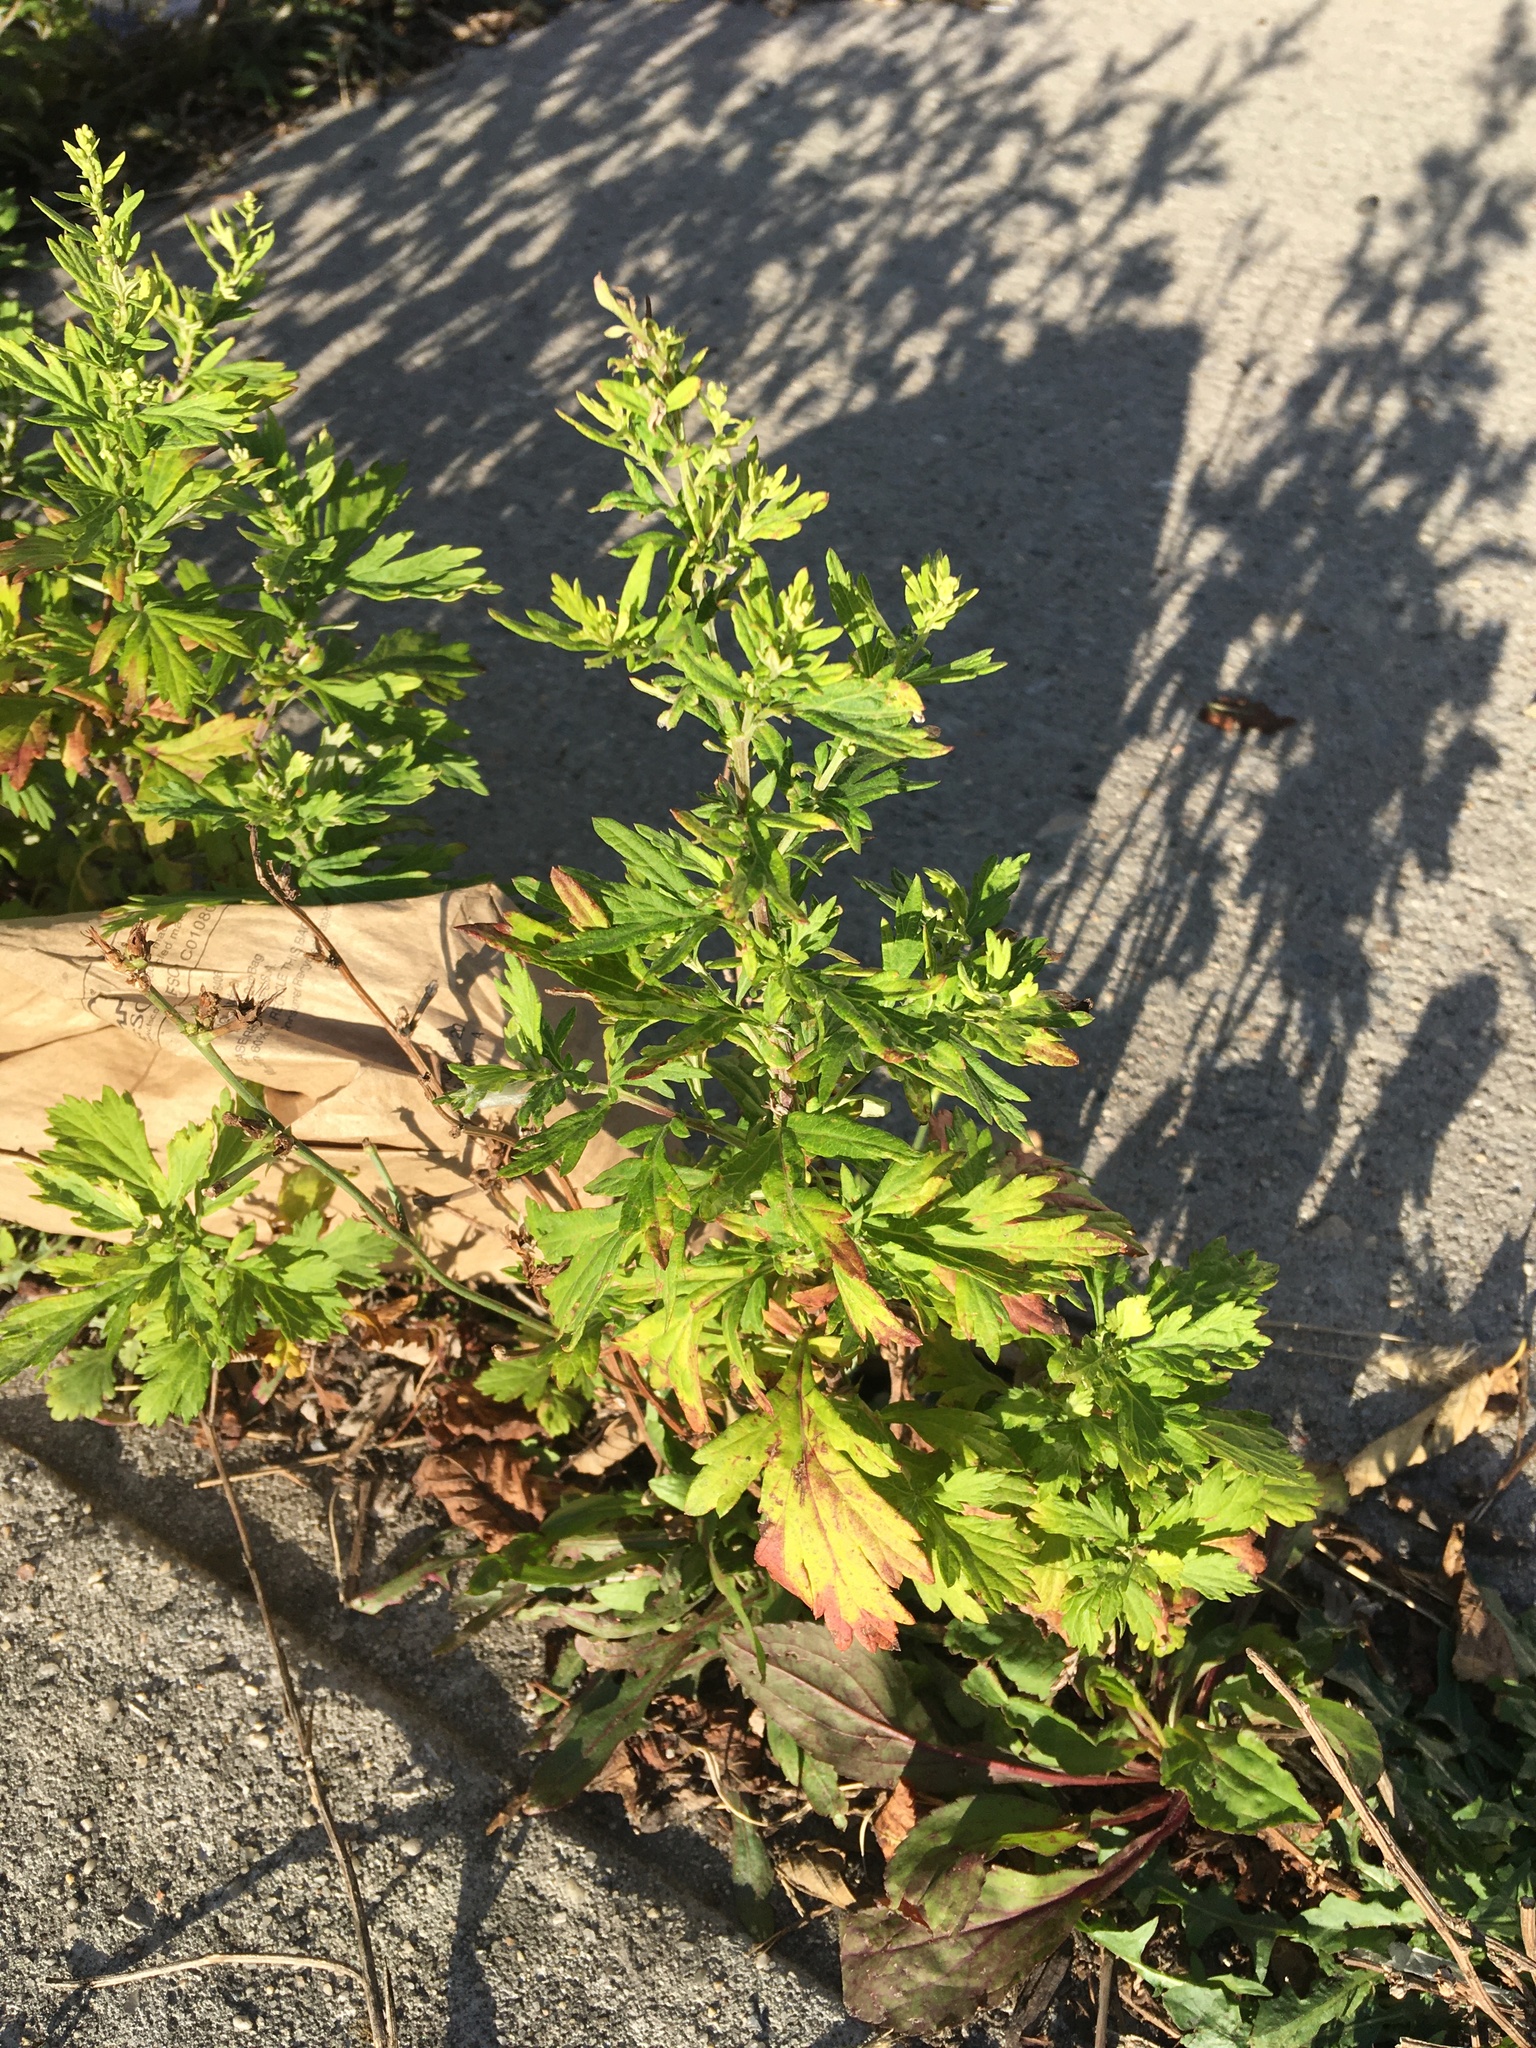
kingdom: Plantae
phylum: Tracheophyta
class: Magnoliopsida
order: Asterales
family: Asteraceae
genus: Artemisia
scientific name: Artemisia vulgaris
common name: Mugwort
